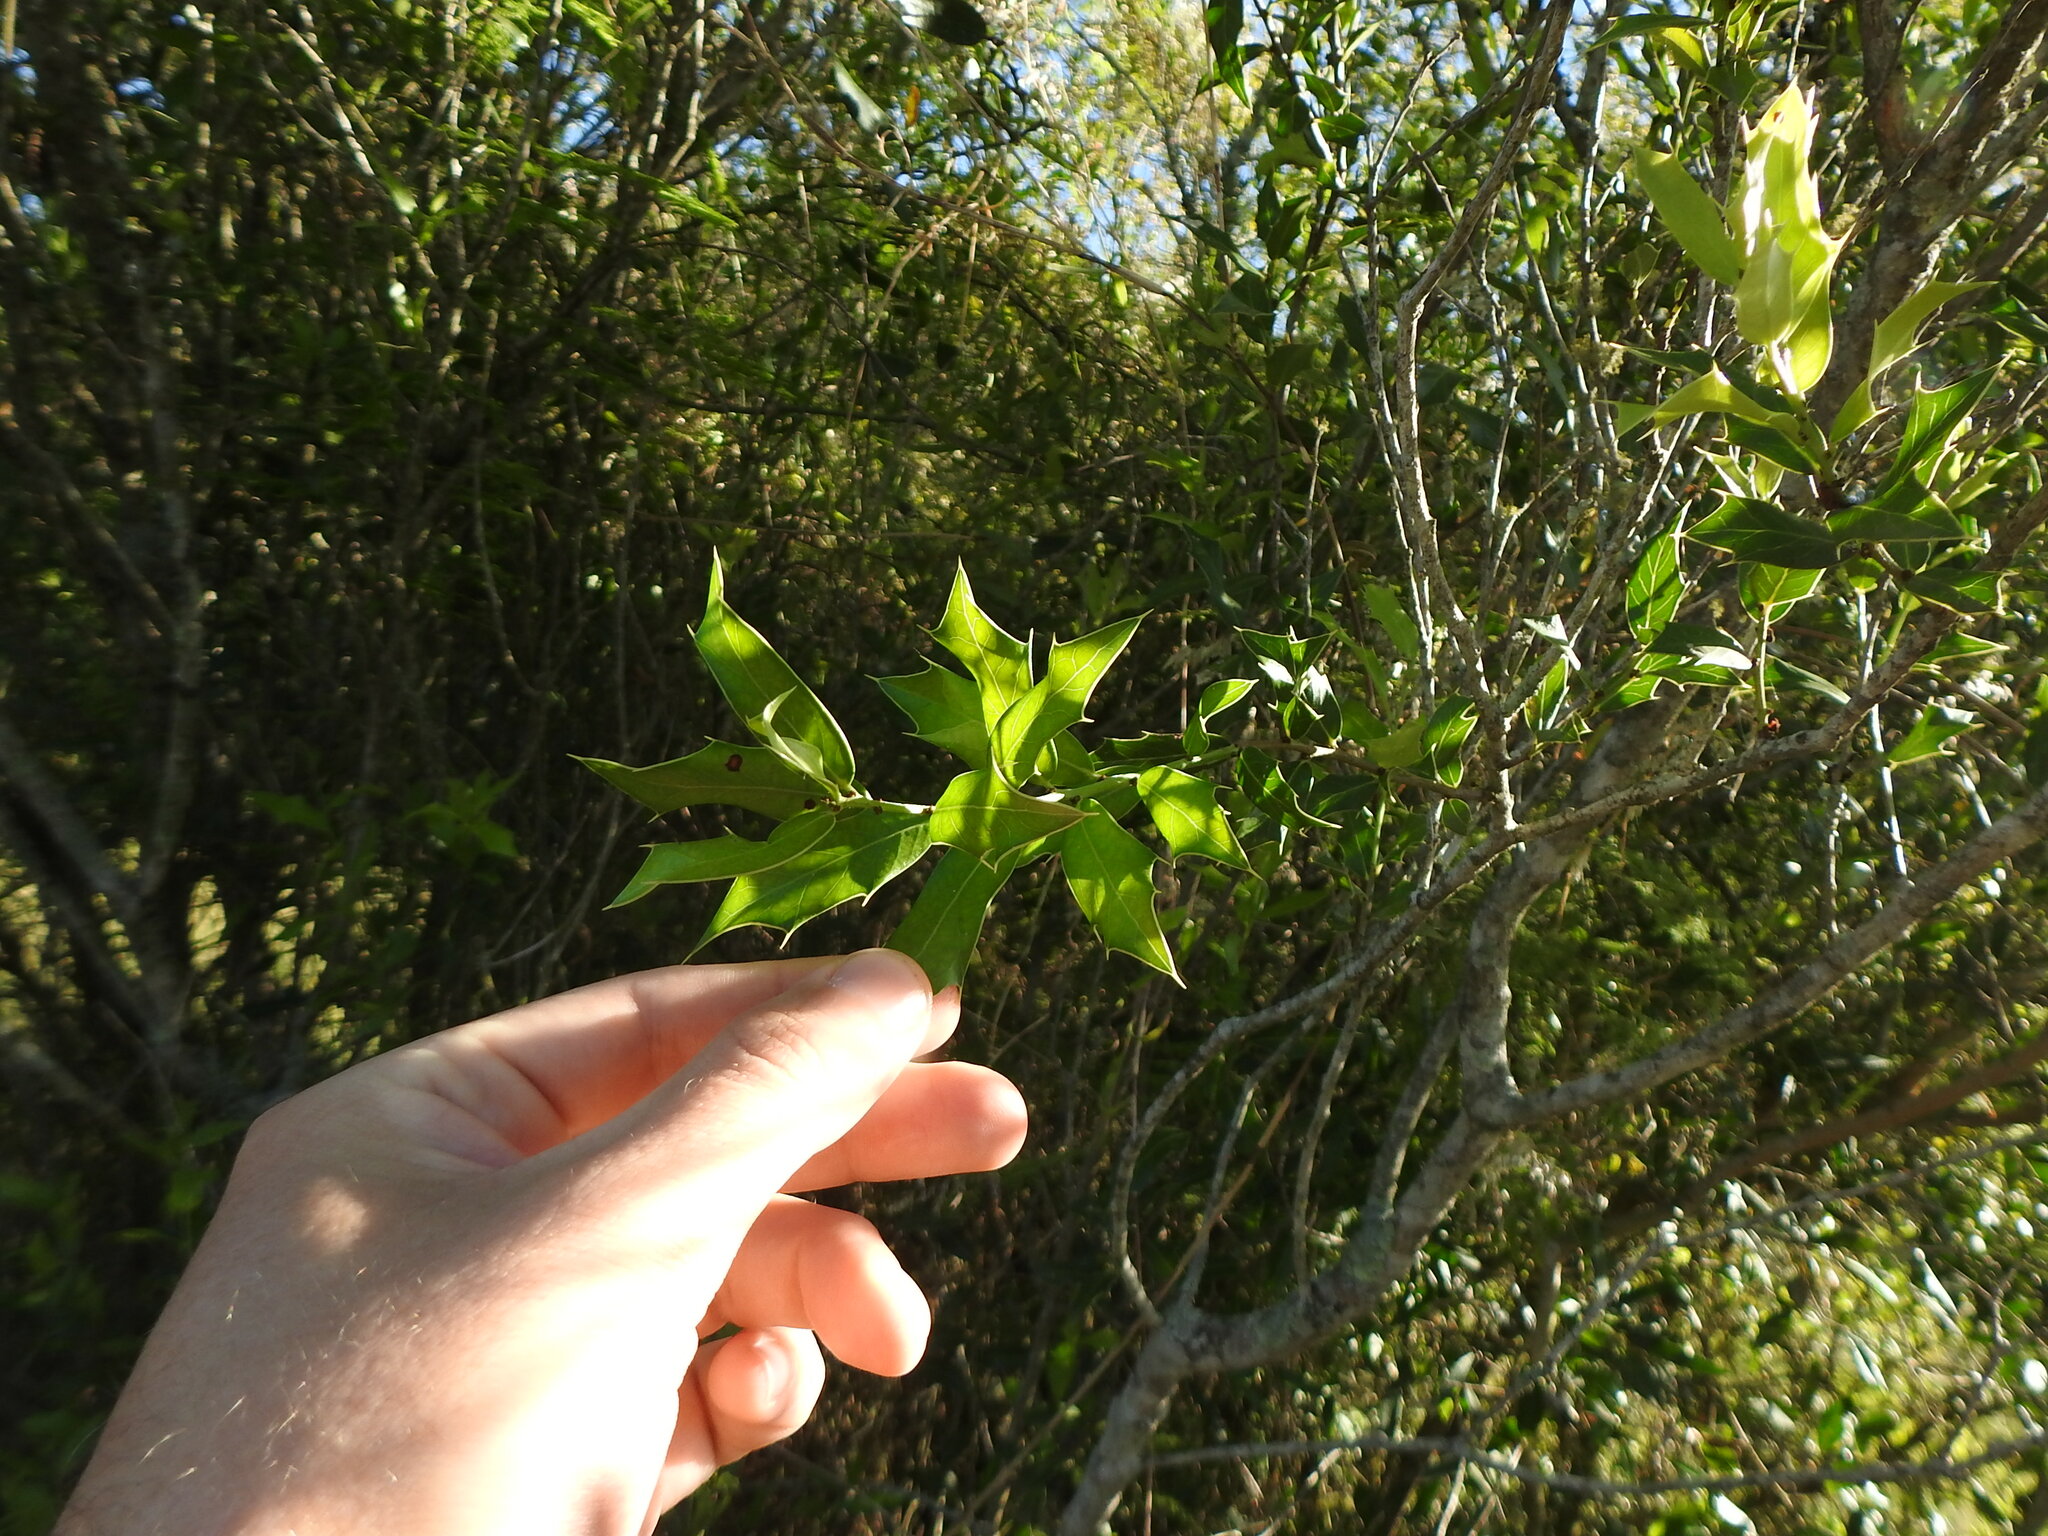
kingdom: Plantae
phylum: Tracheophyta
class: Magnoliopsida
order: Celastrales
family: Celastraceae
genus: Monteverdia
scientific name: Monteverdia
